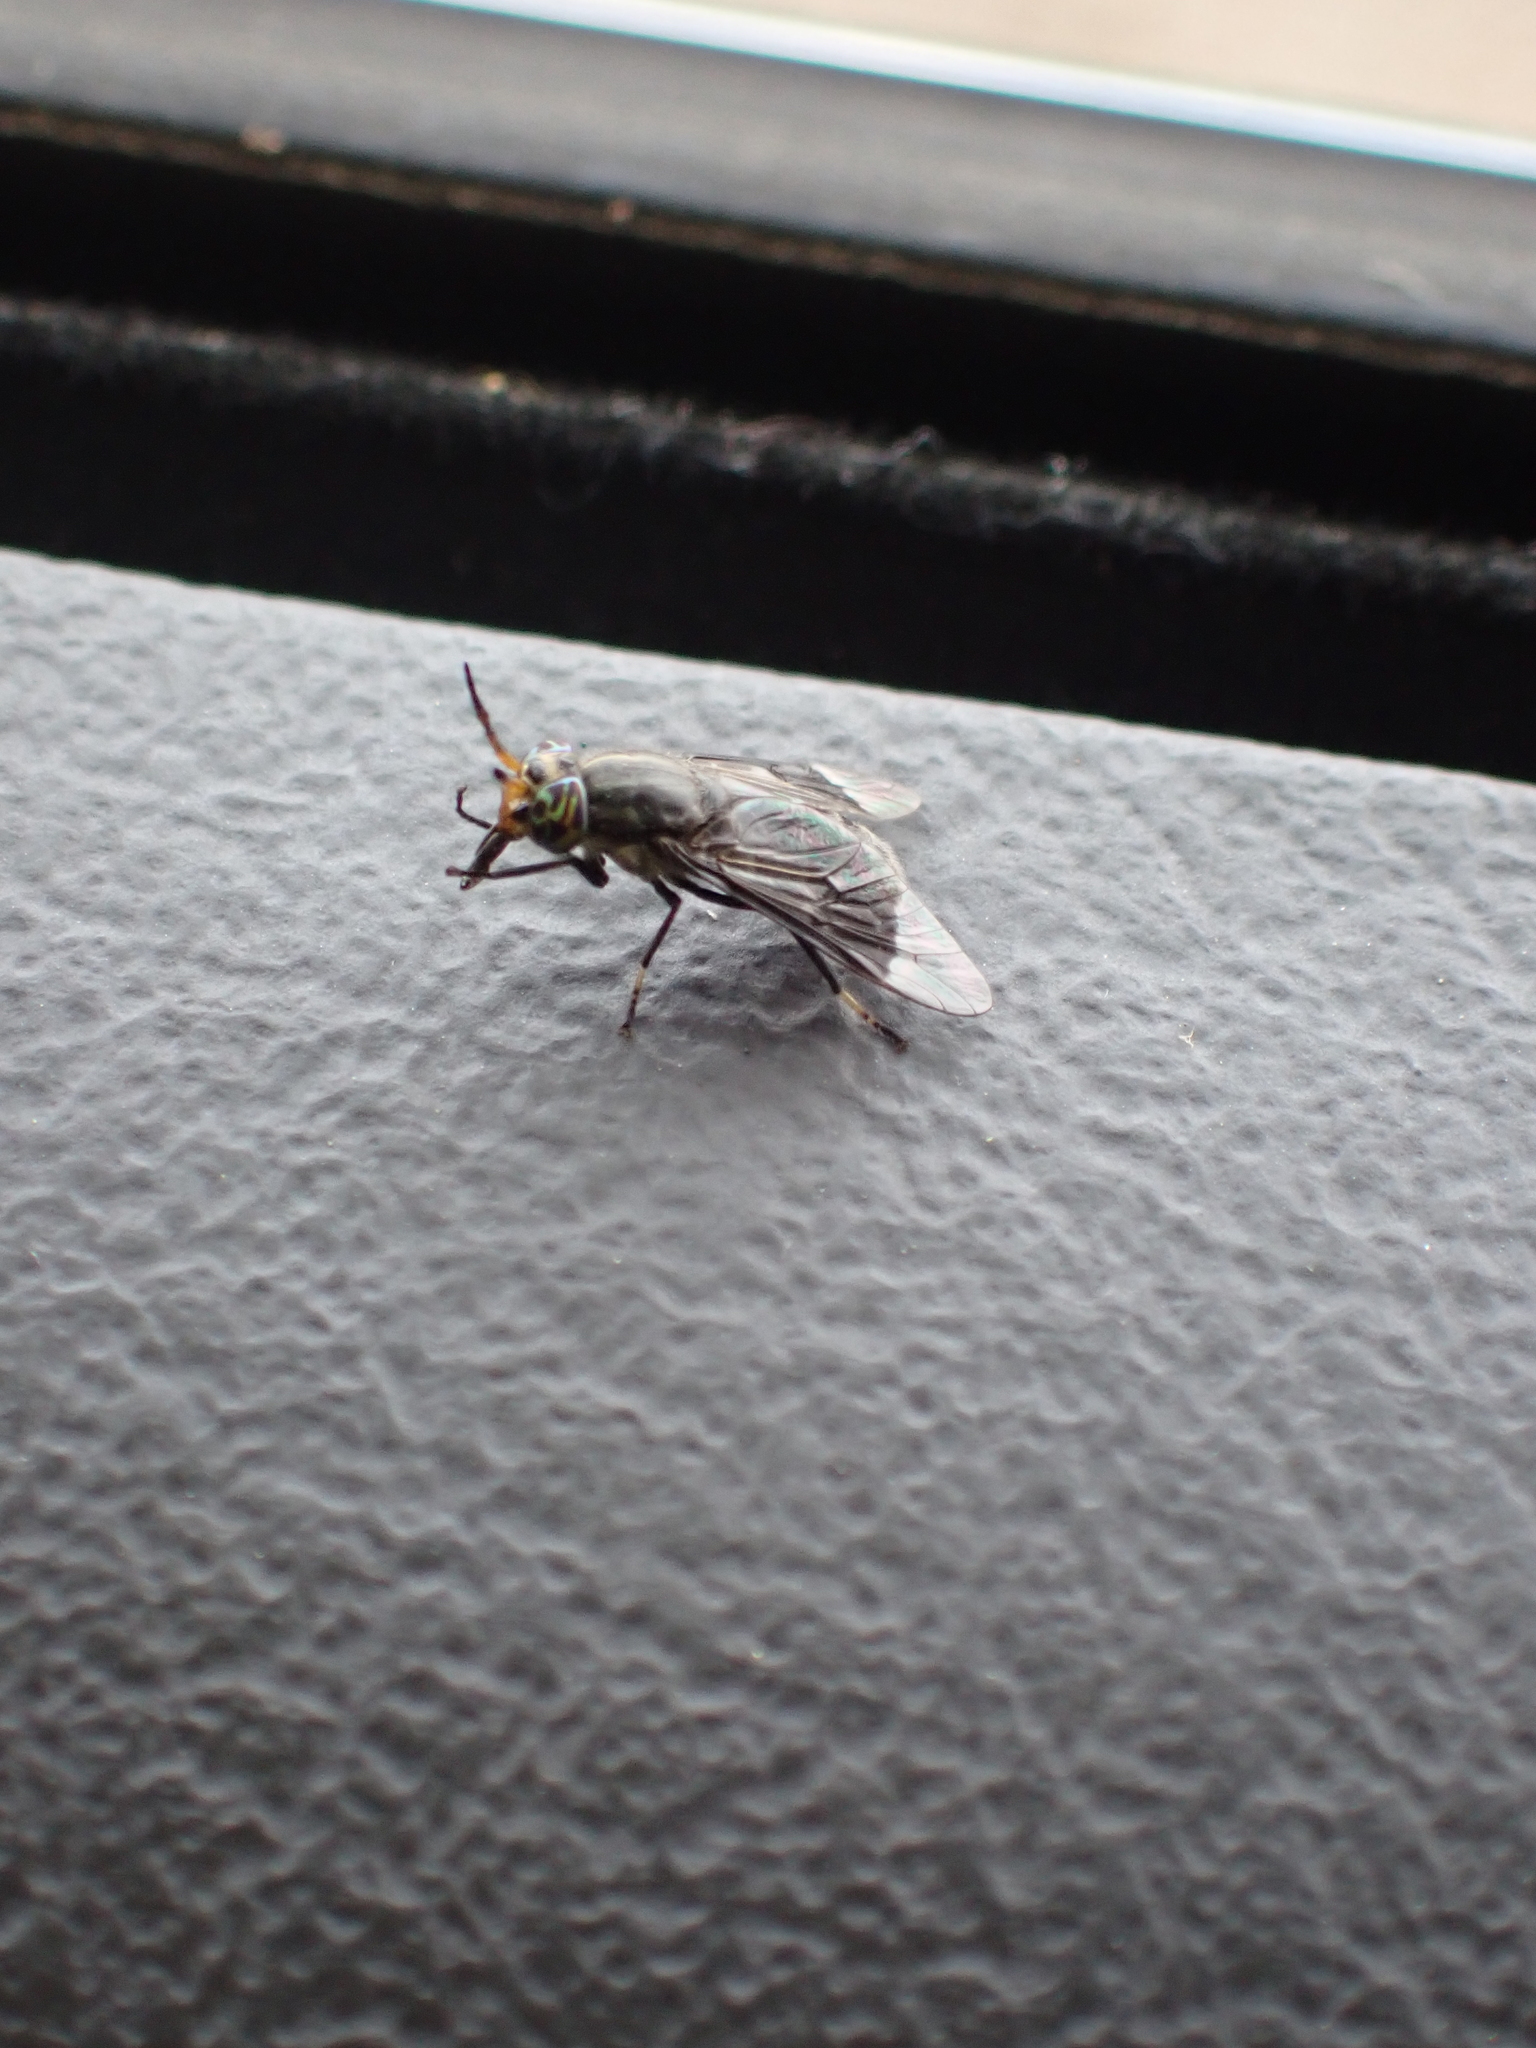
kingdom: Animalia
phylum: Arthropoda
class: Insecta
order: Diptera
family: Tabanidae
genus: Chrysops
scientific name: Chrysops niger
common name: Black deer fly
